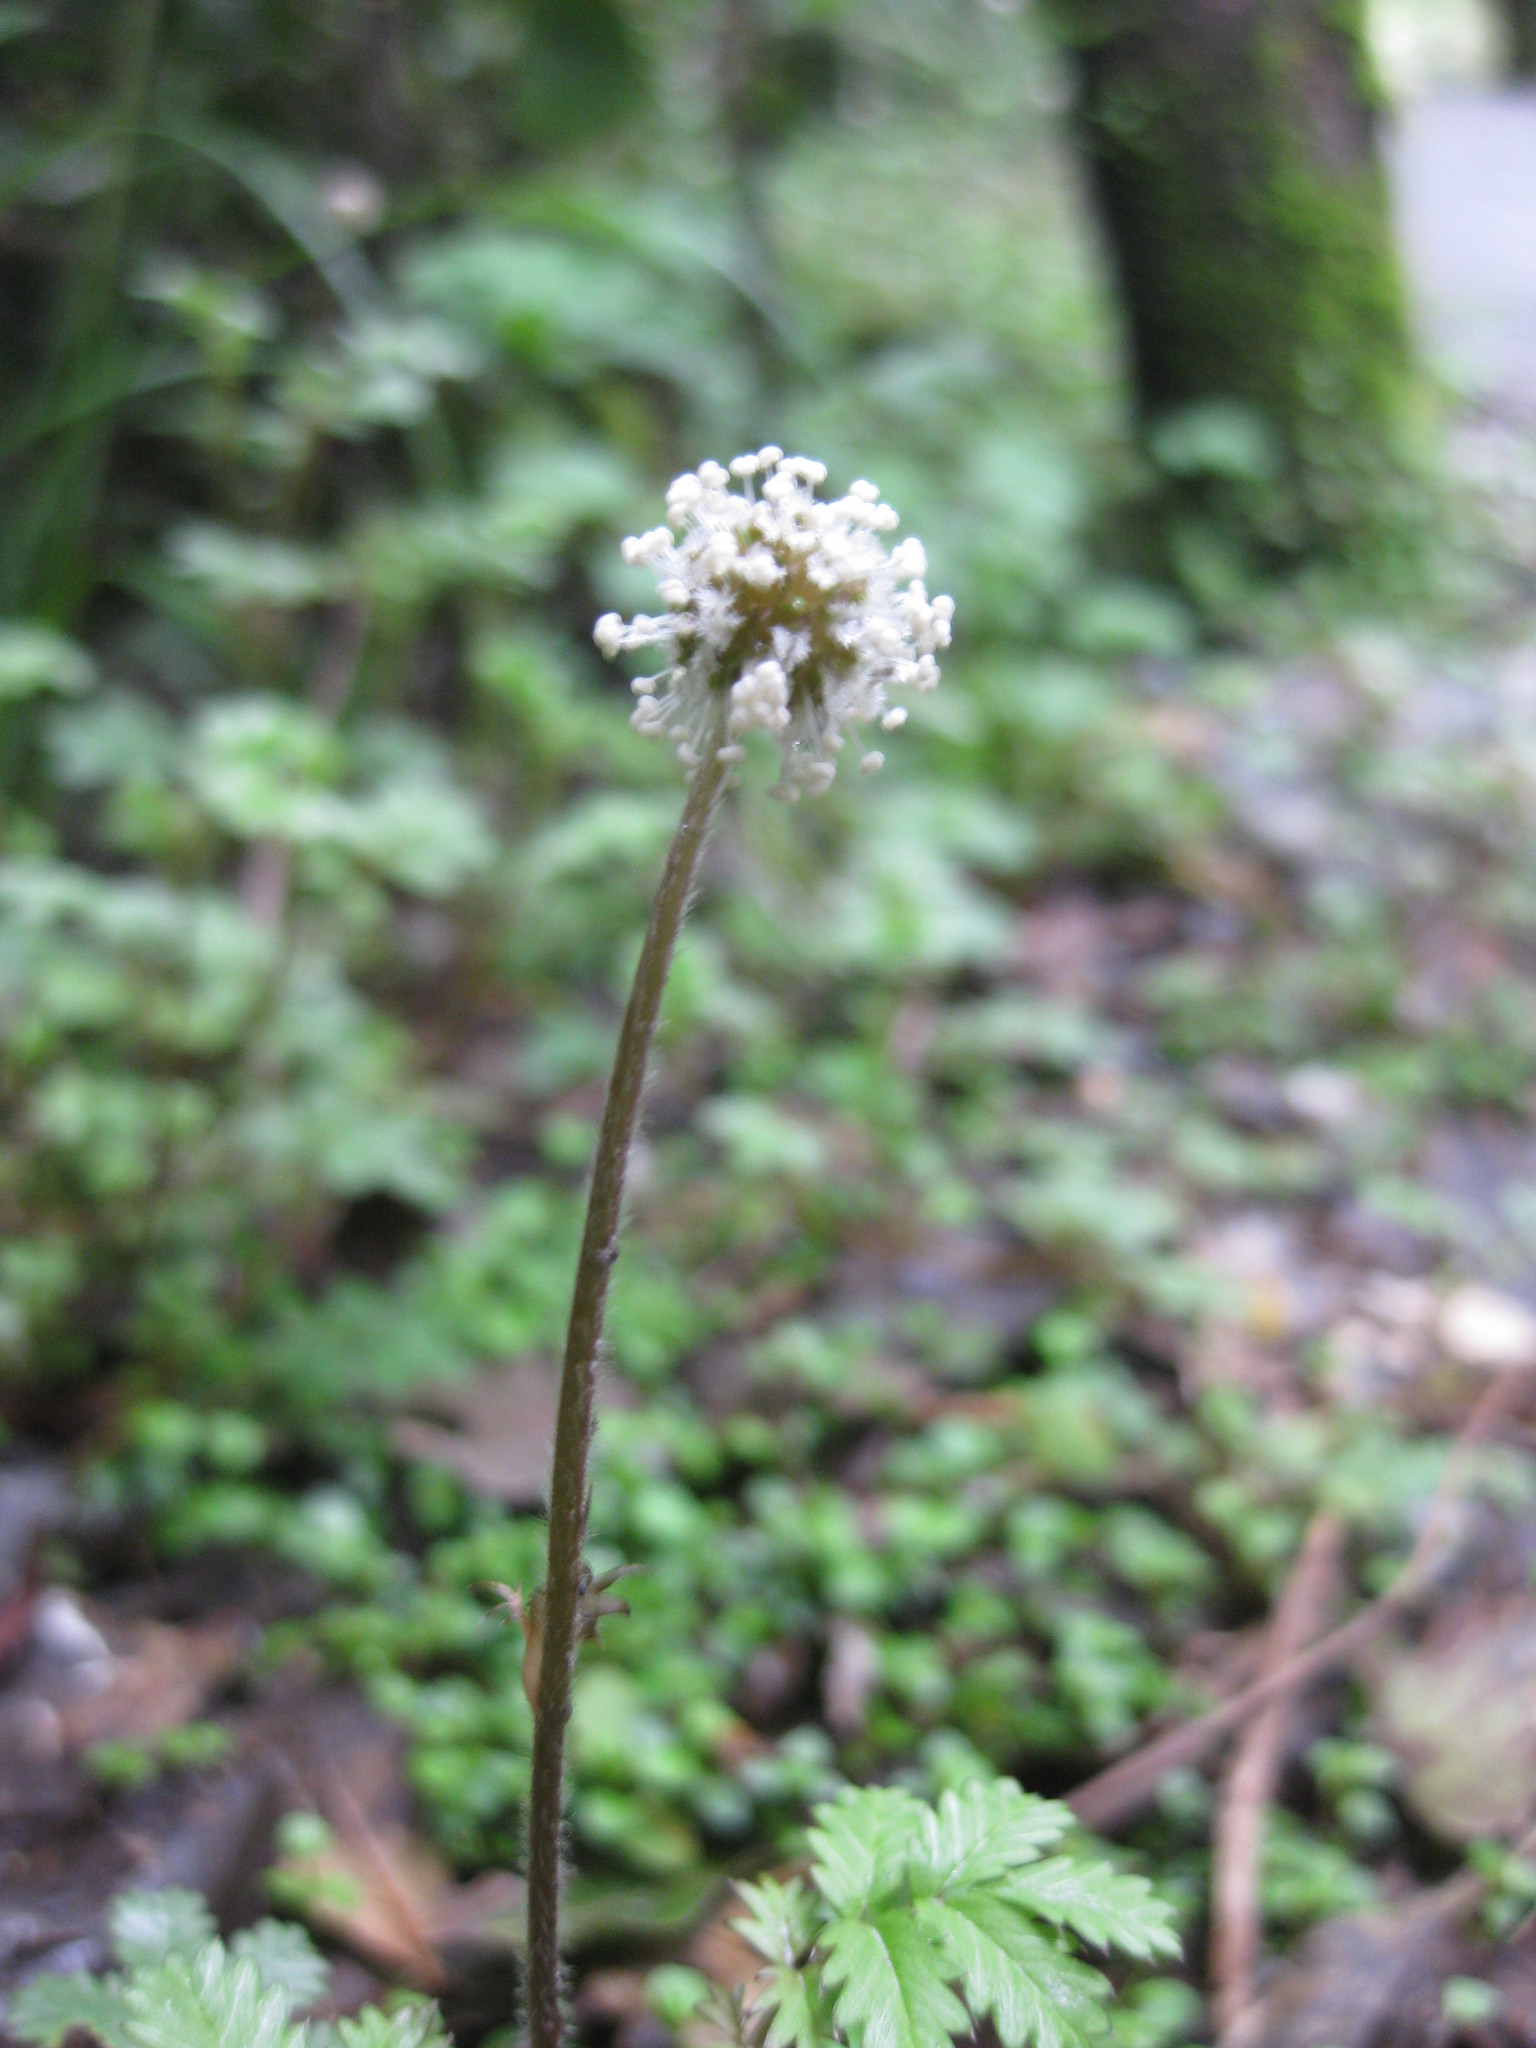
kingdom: Plantae
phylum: Tracheophyta
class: Magnoliopsida
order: Rosales
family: Rosaceae
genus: Acaena
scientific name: Acaena anserinifolia
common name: Bronze pirri-pirri-bur
